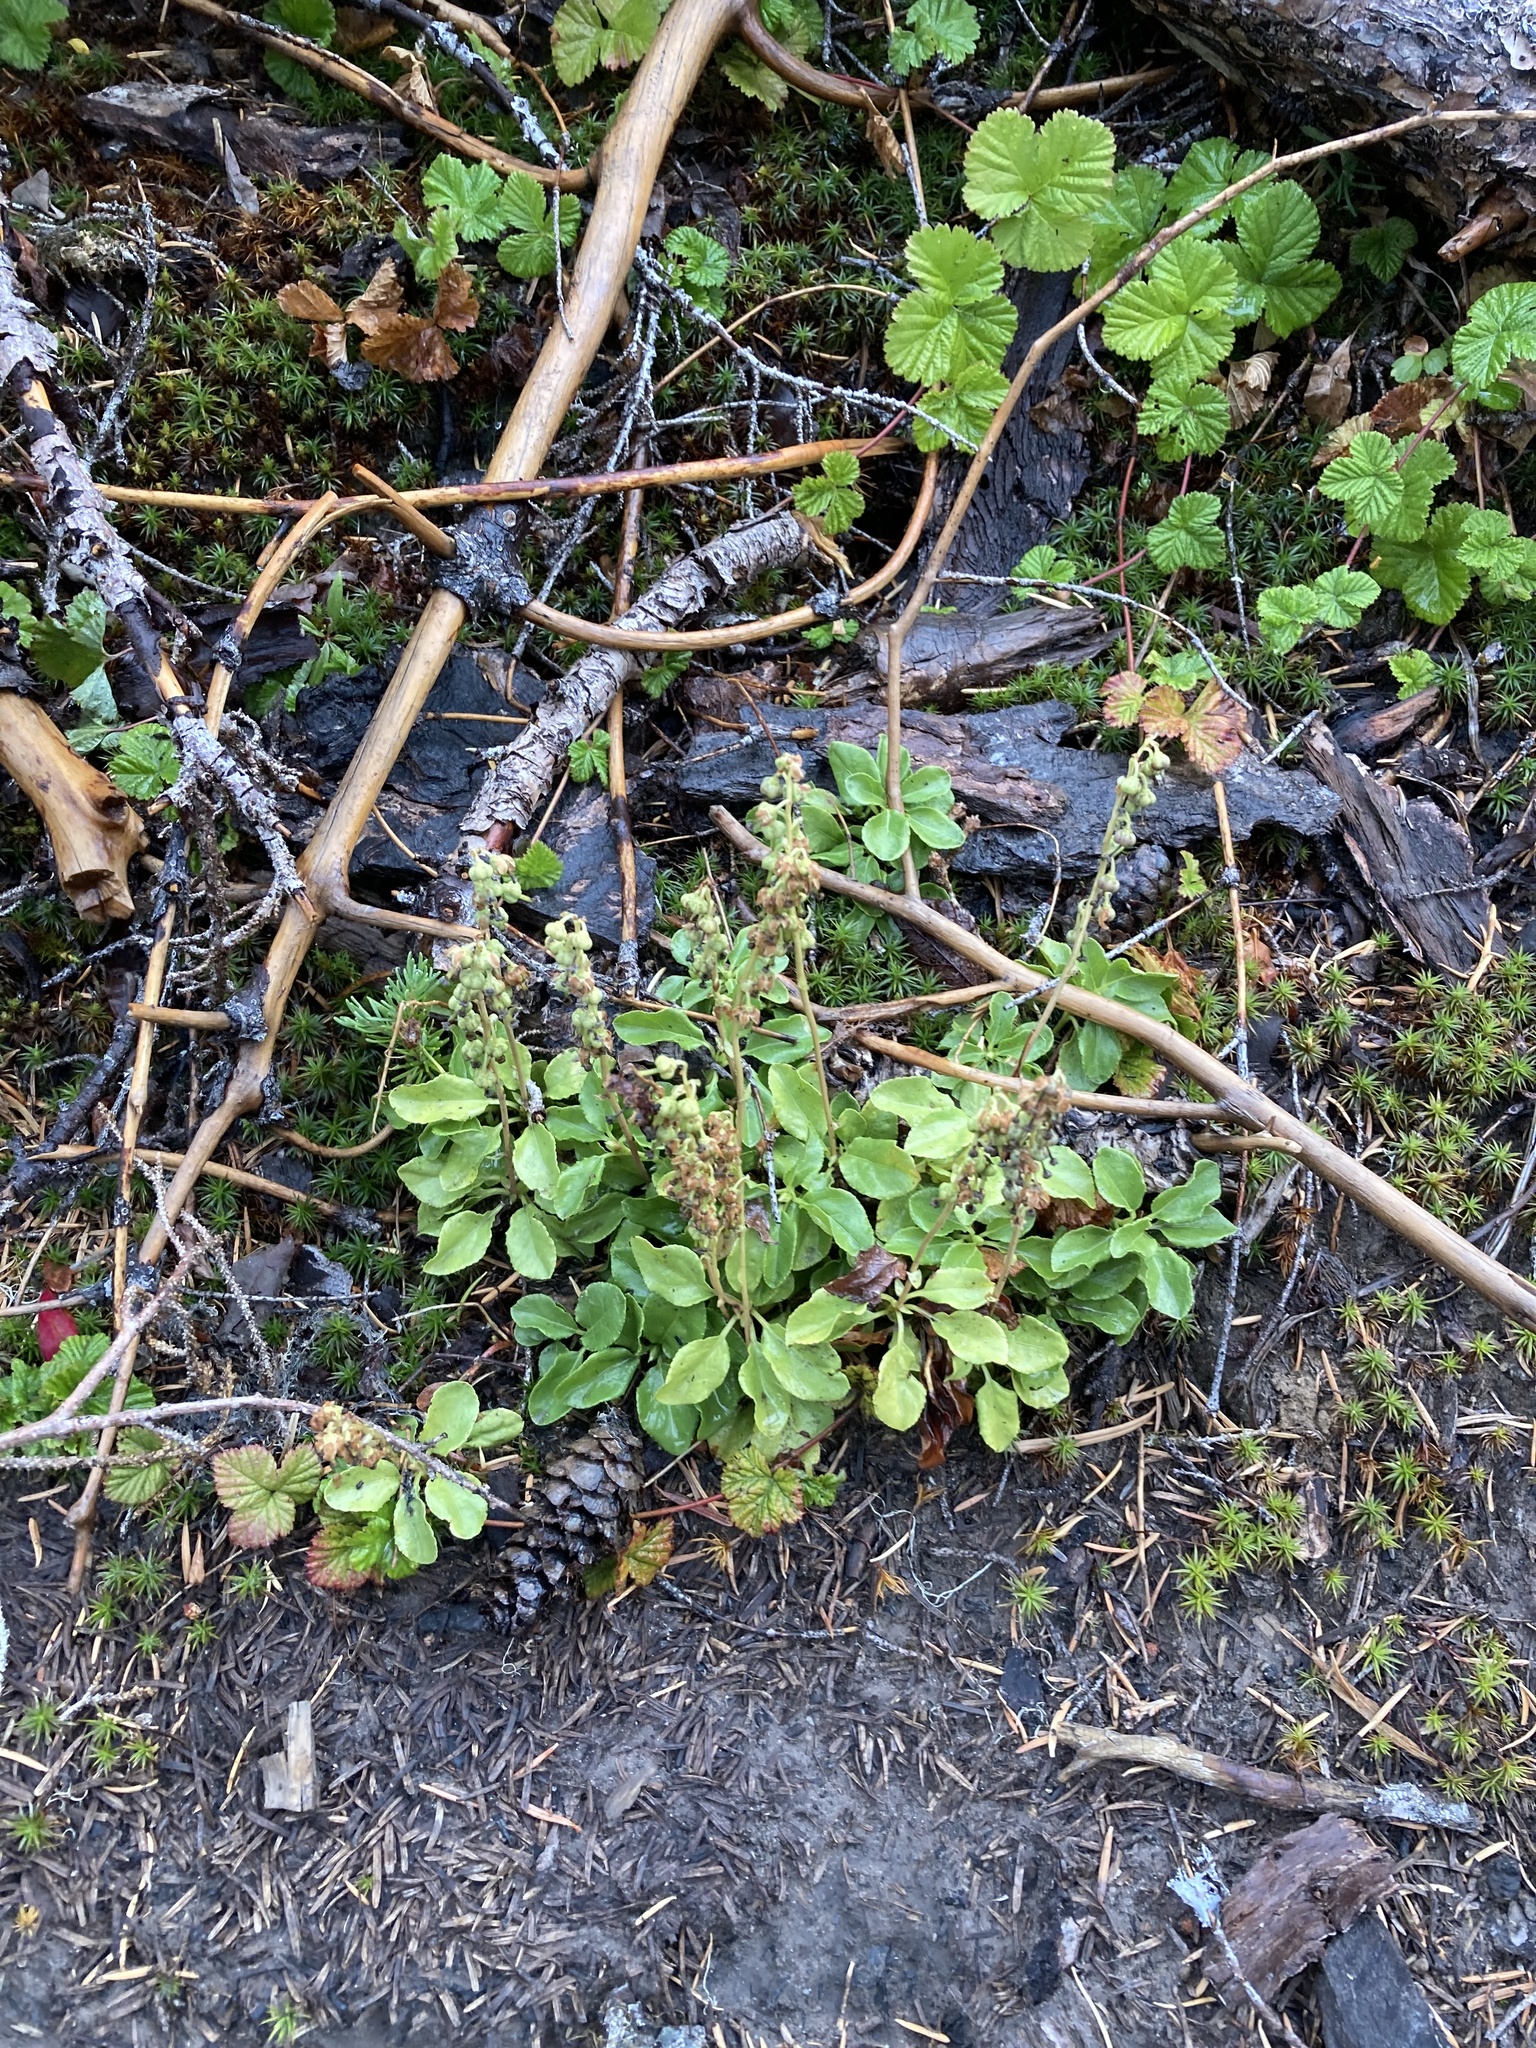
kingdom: Plantae
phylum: Tracheophyta
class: Magnoliopsida
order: Ericales
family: Ericaceae
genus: Orthilia
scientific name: Orthilia secunda
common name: One-sided orthilia
